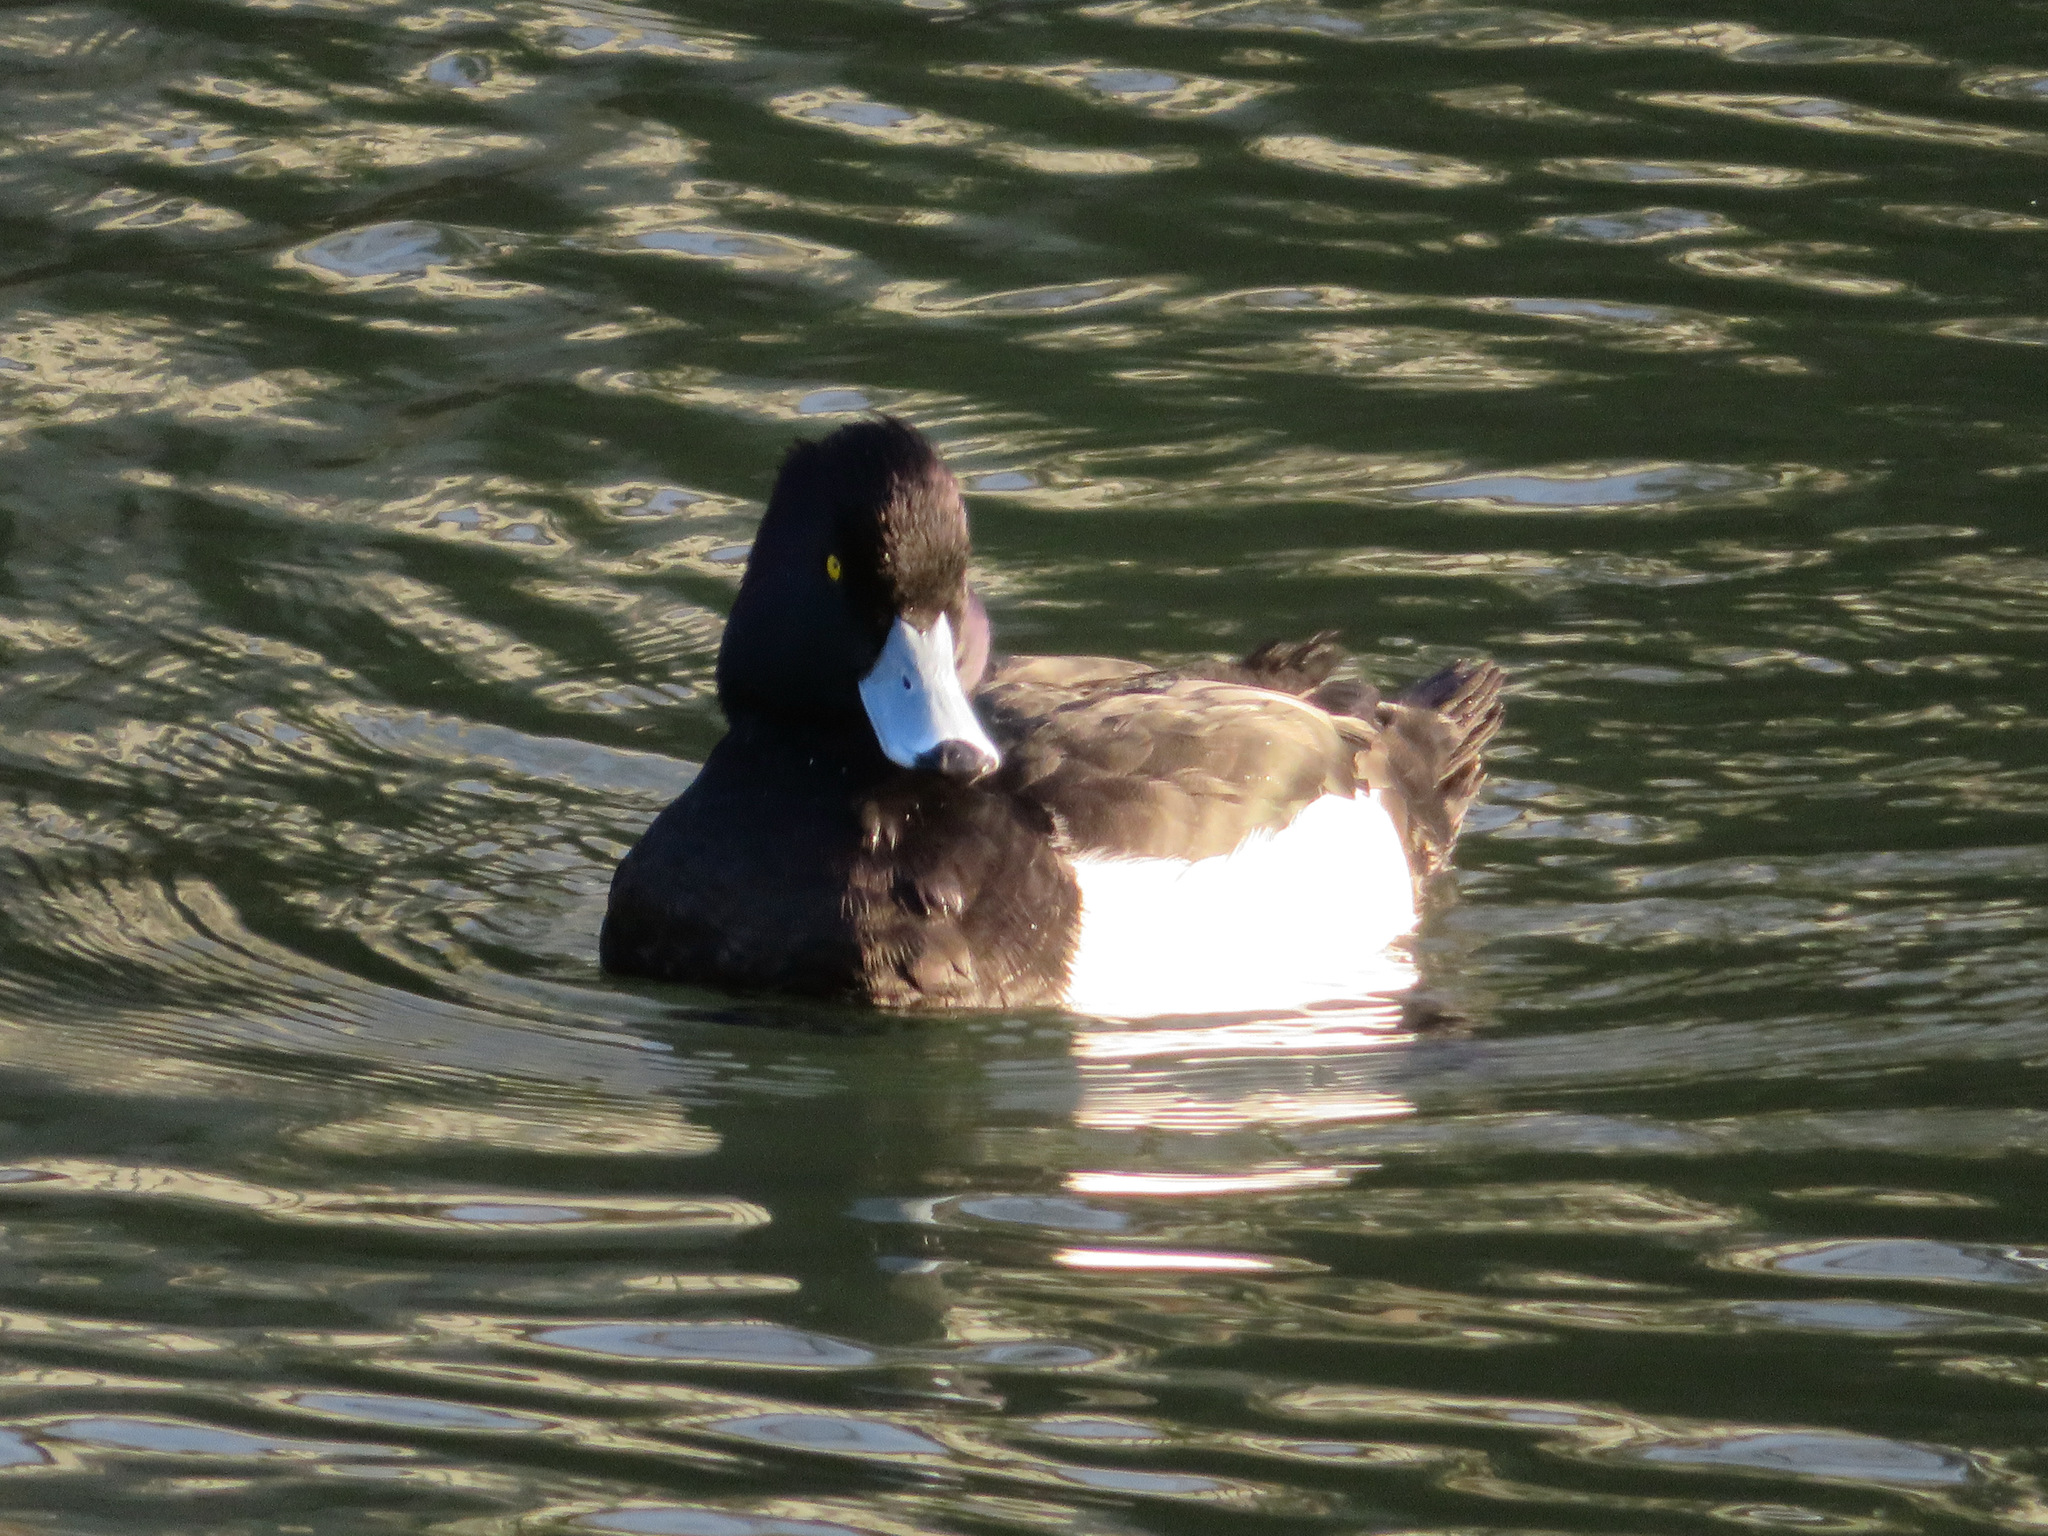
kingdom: Animalia
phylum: Chordata
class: Aves
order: Anseriformes
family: Anatidae
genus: Aythya
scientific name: Aythya fuligula
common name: Tufted duck
